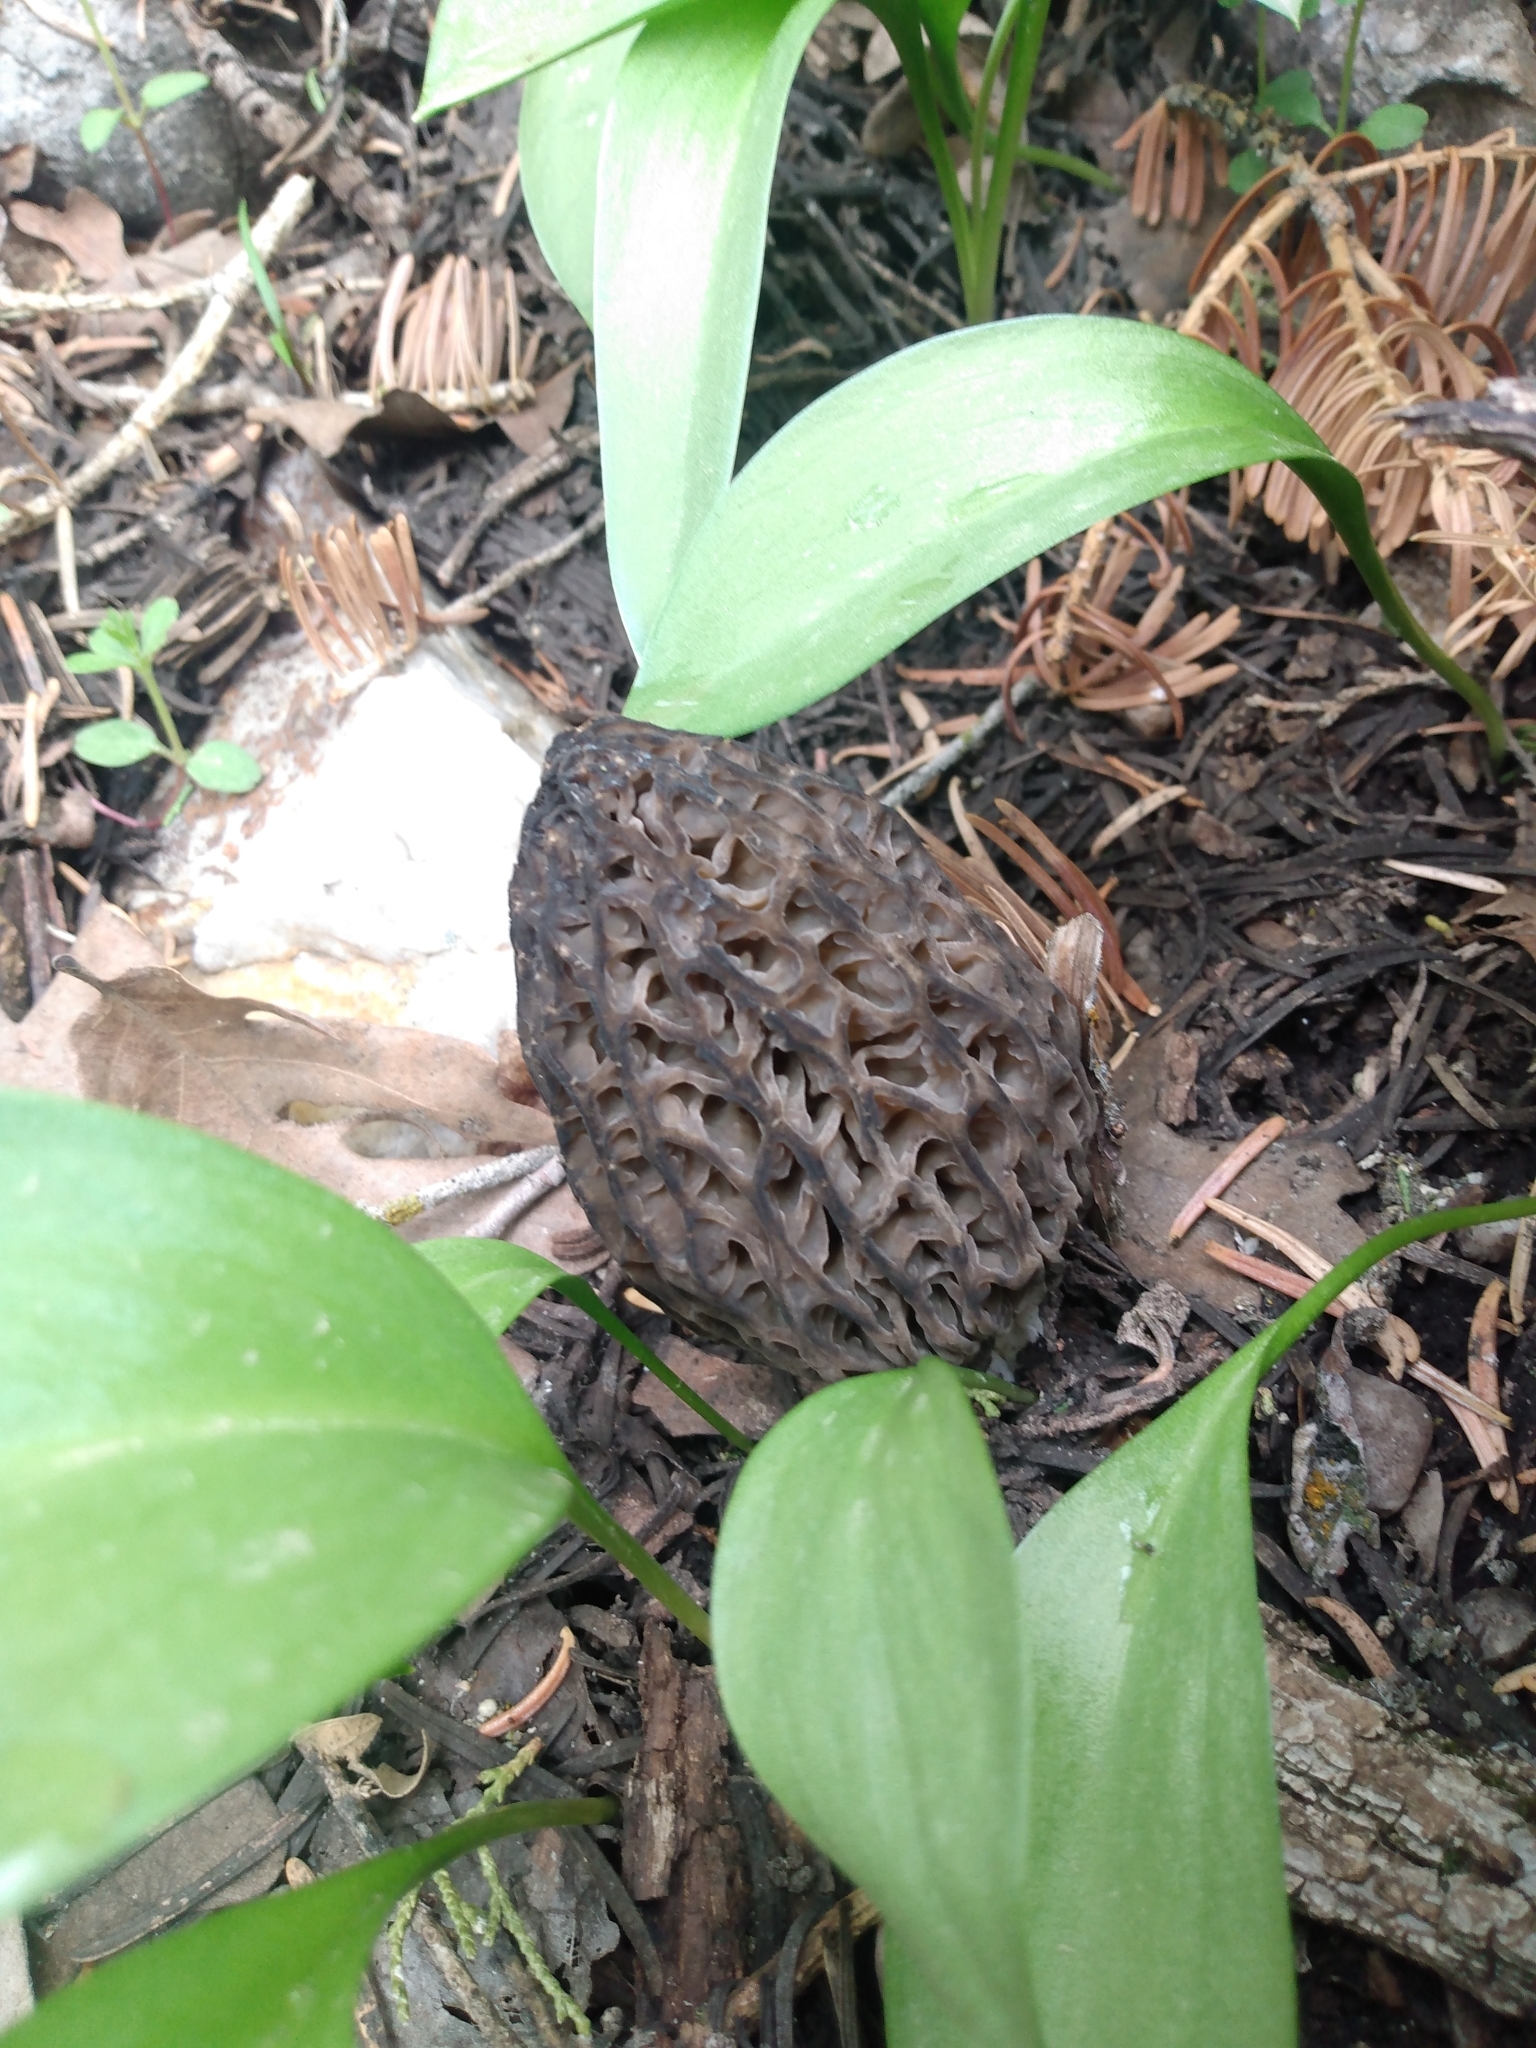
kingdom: Fungi
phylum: Ascomycota
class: Pezizomycetes
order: Pezizales
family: Morchellaceae
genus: Morchella
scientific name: Morchella snyderi
